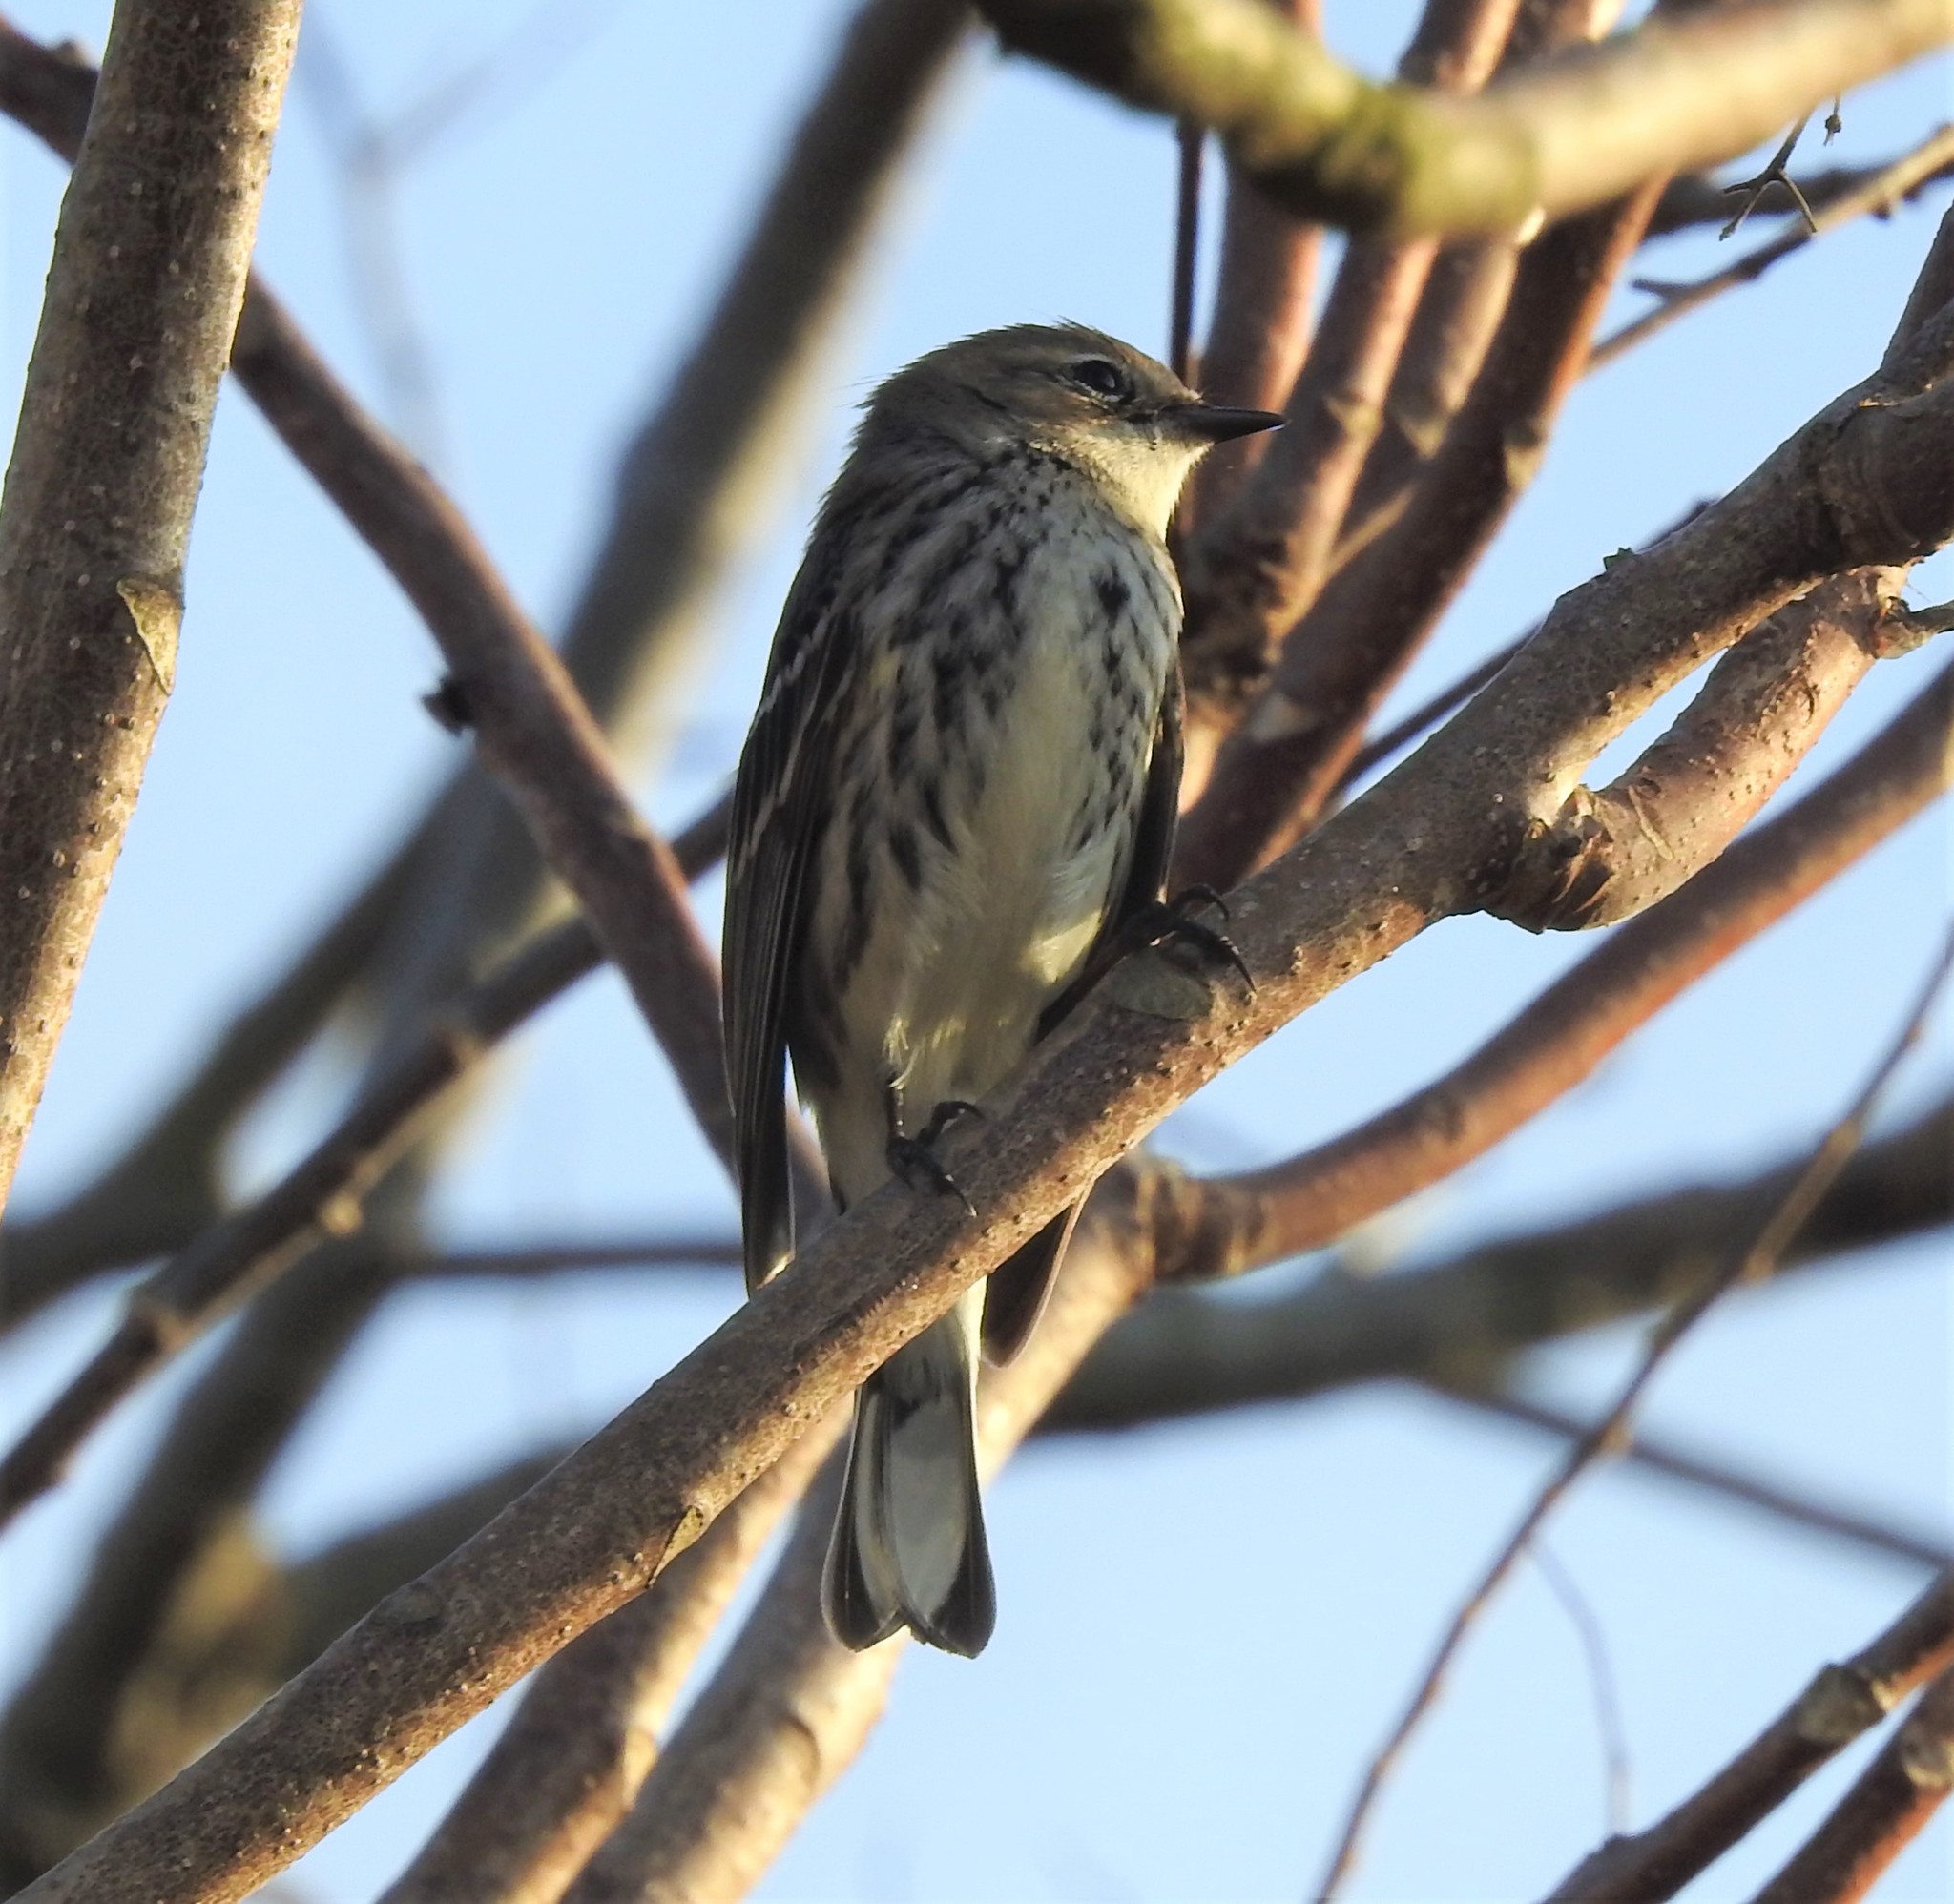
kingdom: Animalia
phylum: Chordata
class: Aves
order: Passeriformes
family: Parulidae
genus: Setophaga
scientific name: Setophaga coronata
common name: Myrtle warbler
